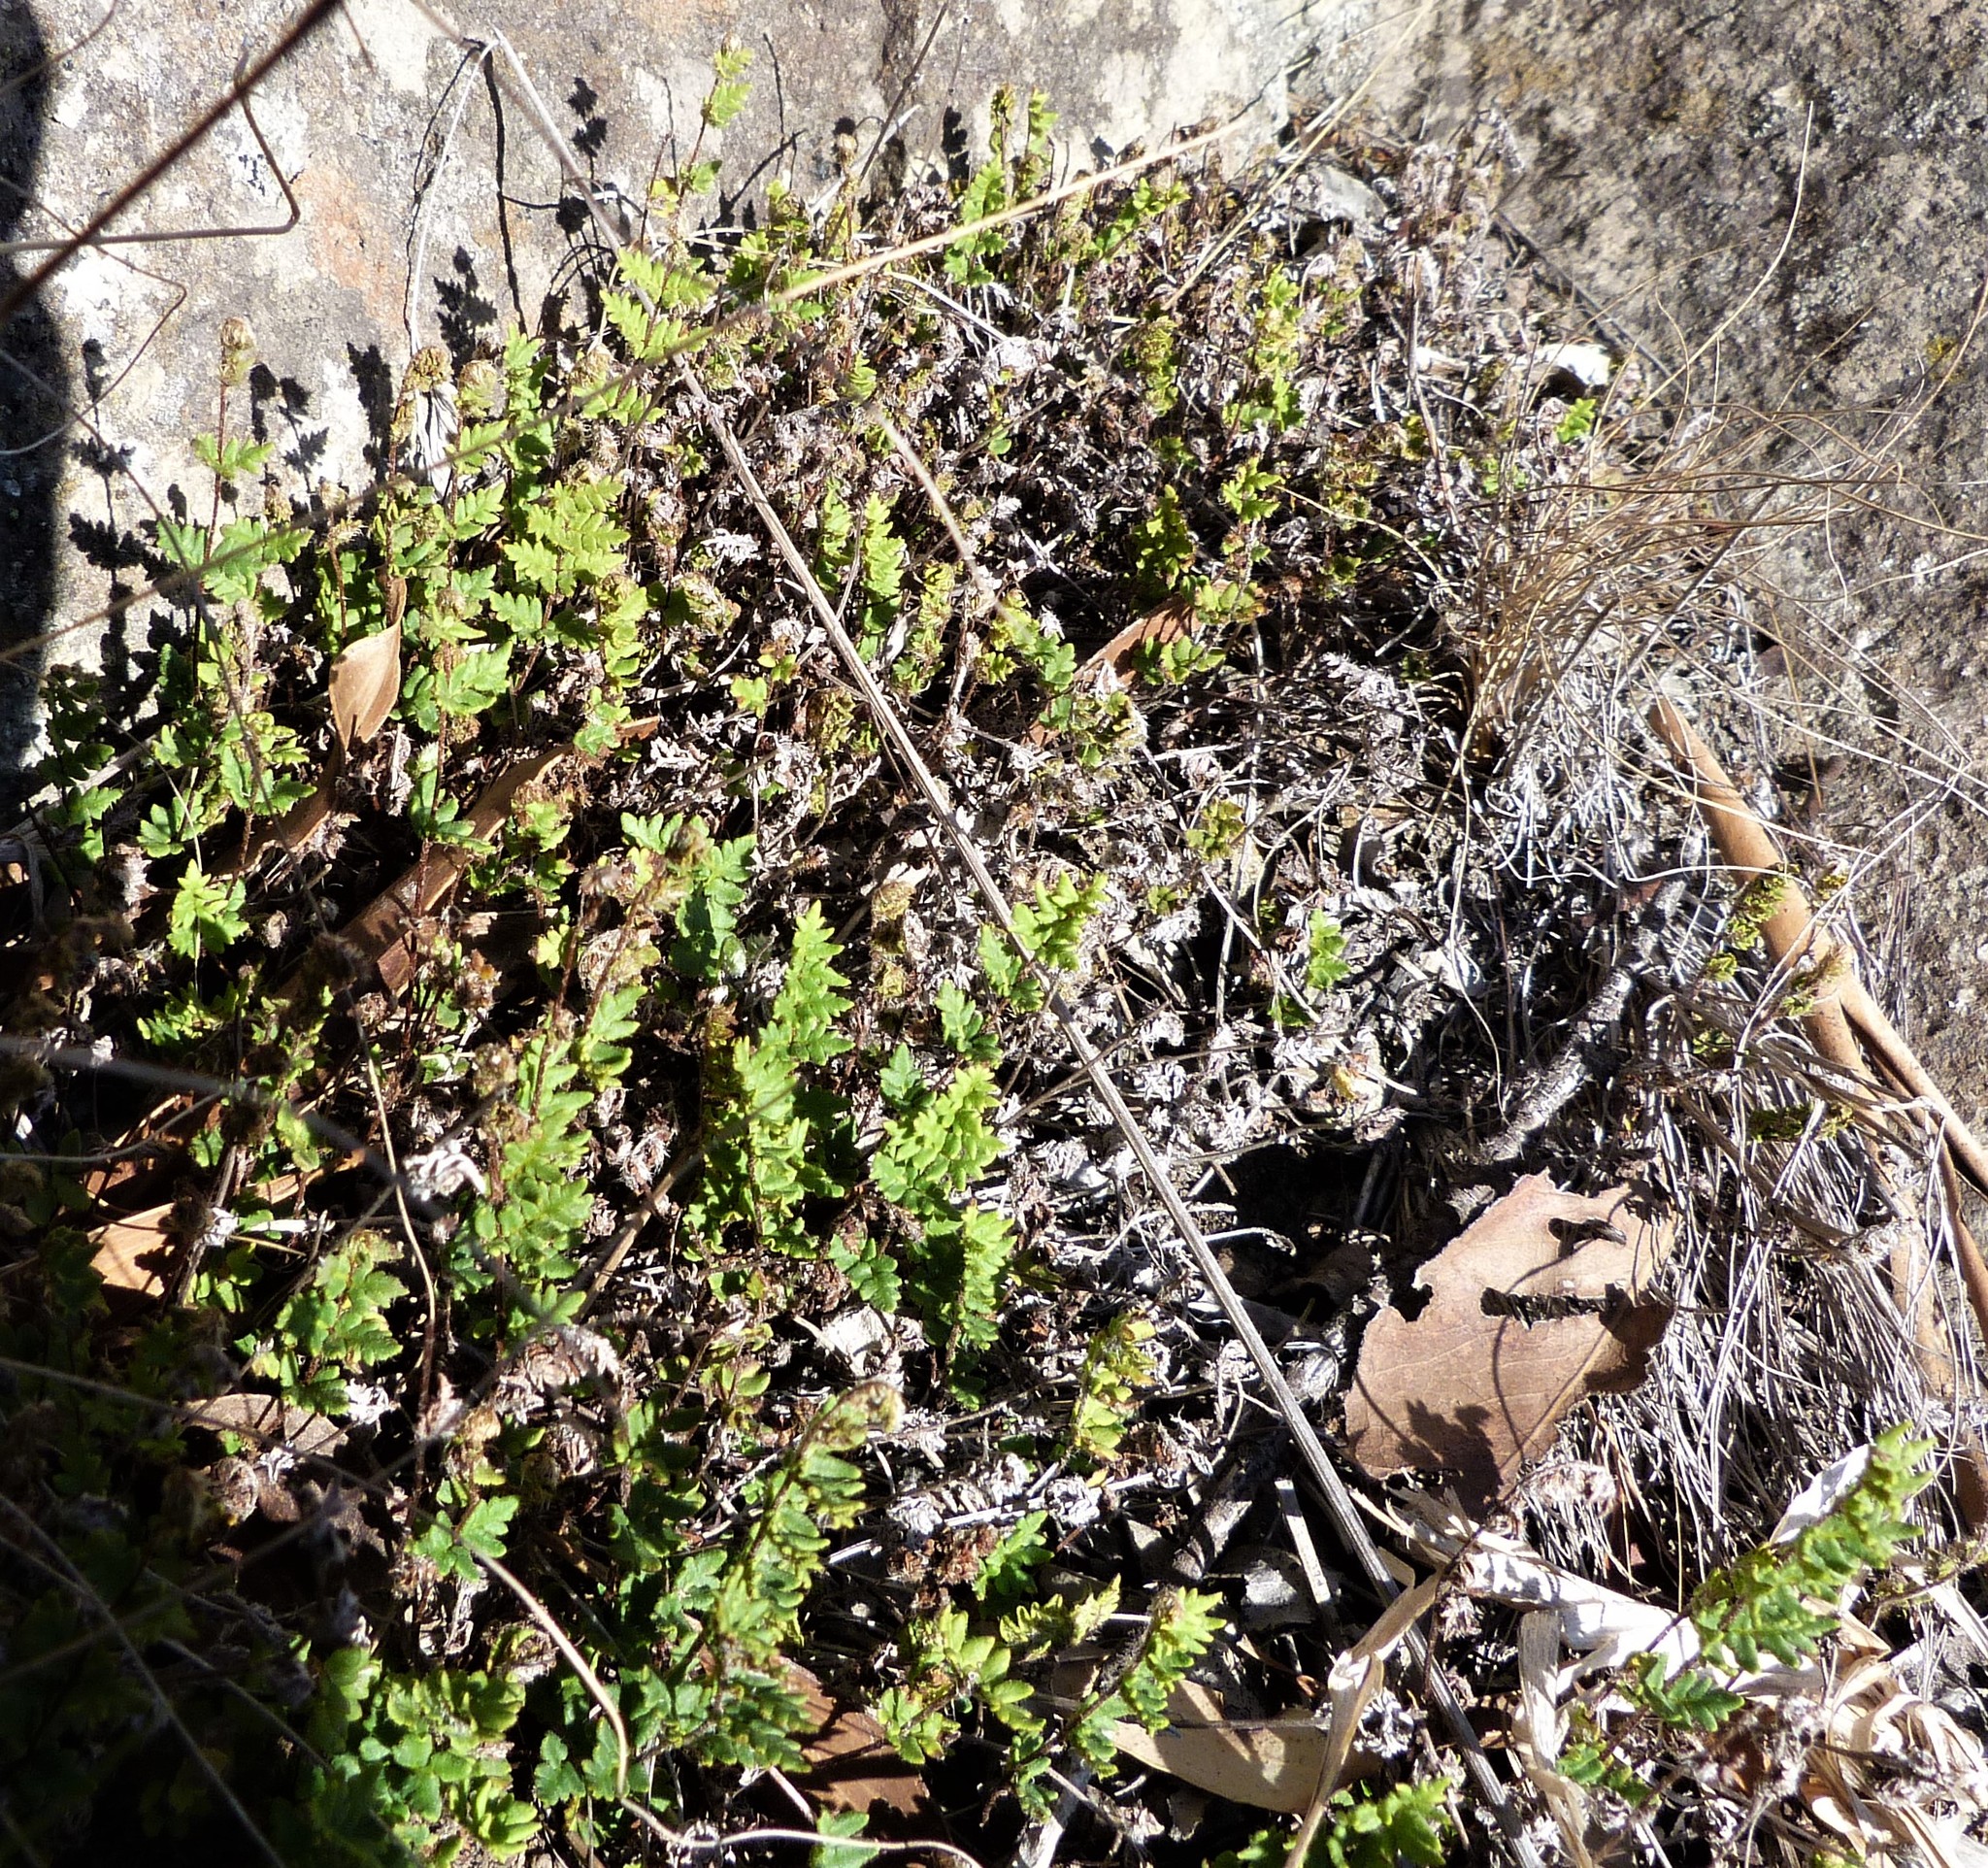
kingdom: Plantae
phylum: Tracheophyta
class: Polypodiopsida
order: Polypodiales
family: Pteridaceae
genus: Cheilanthes
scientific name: Cheilanthes distans
